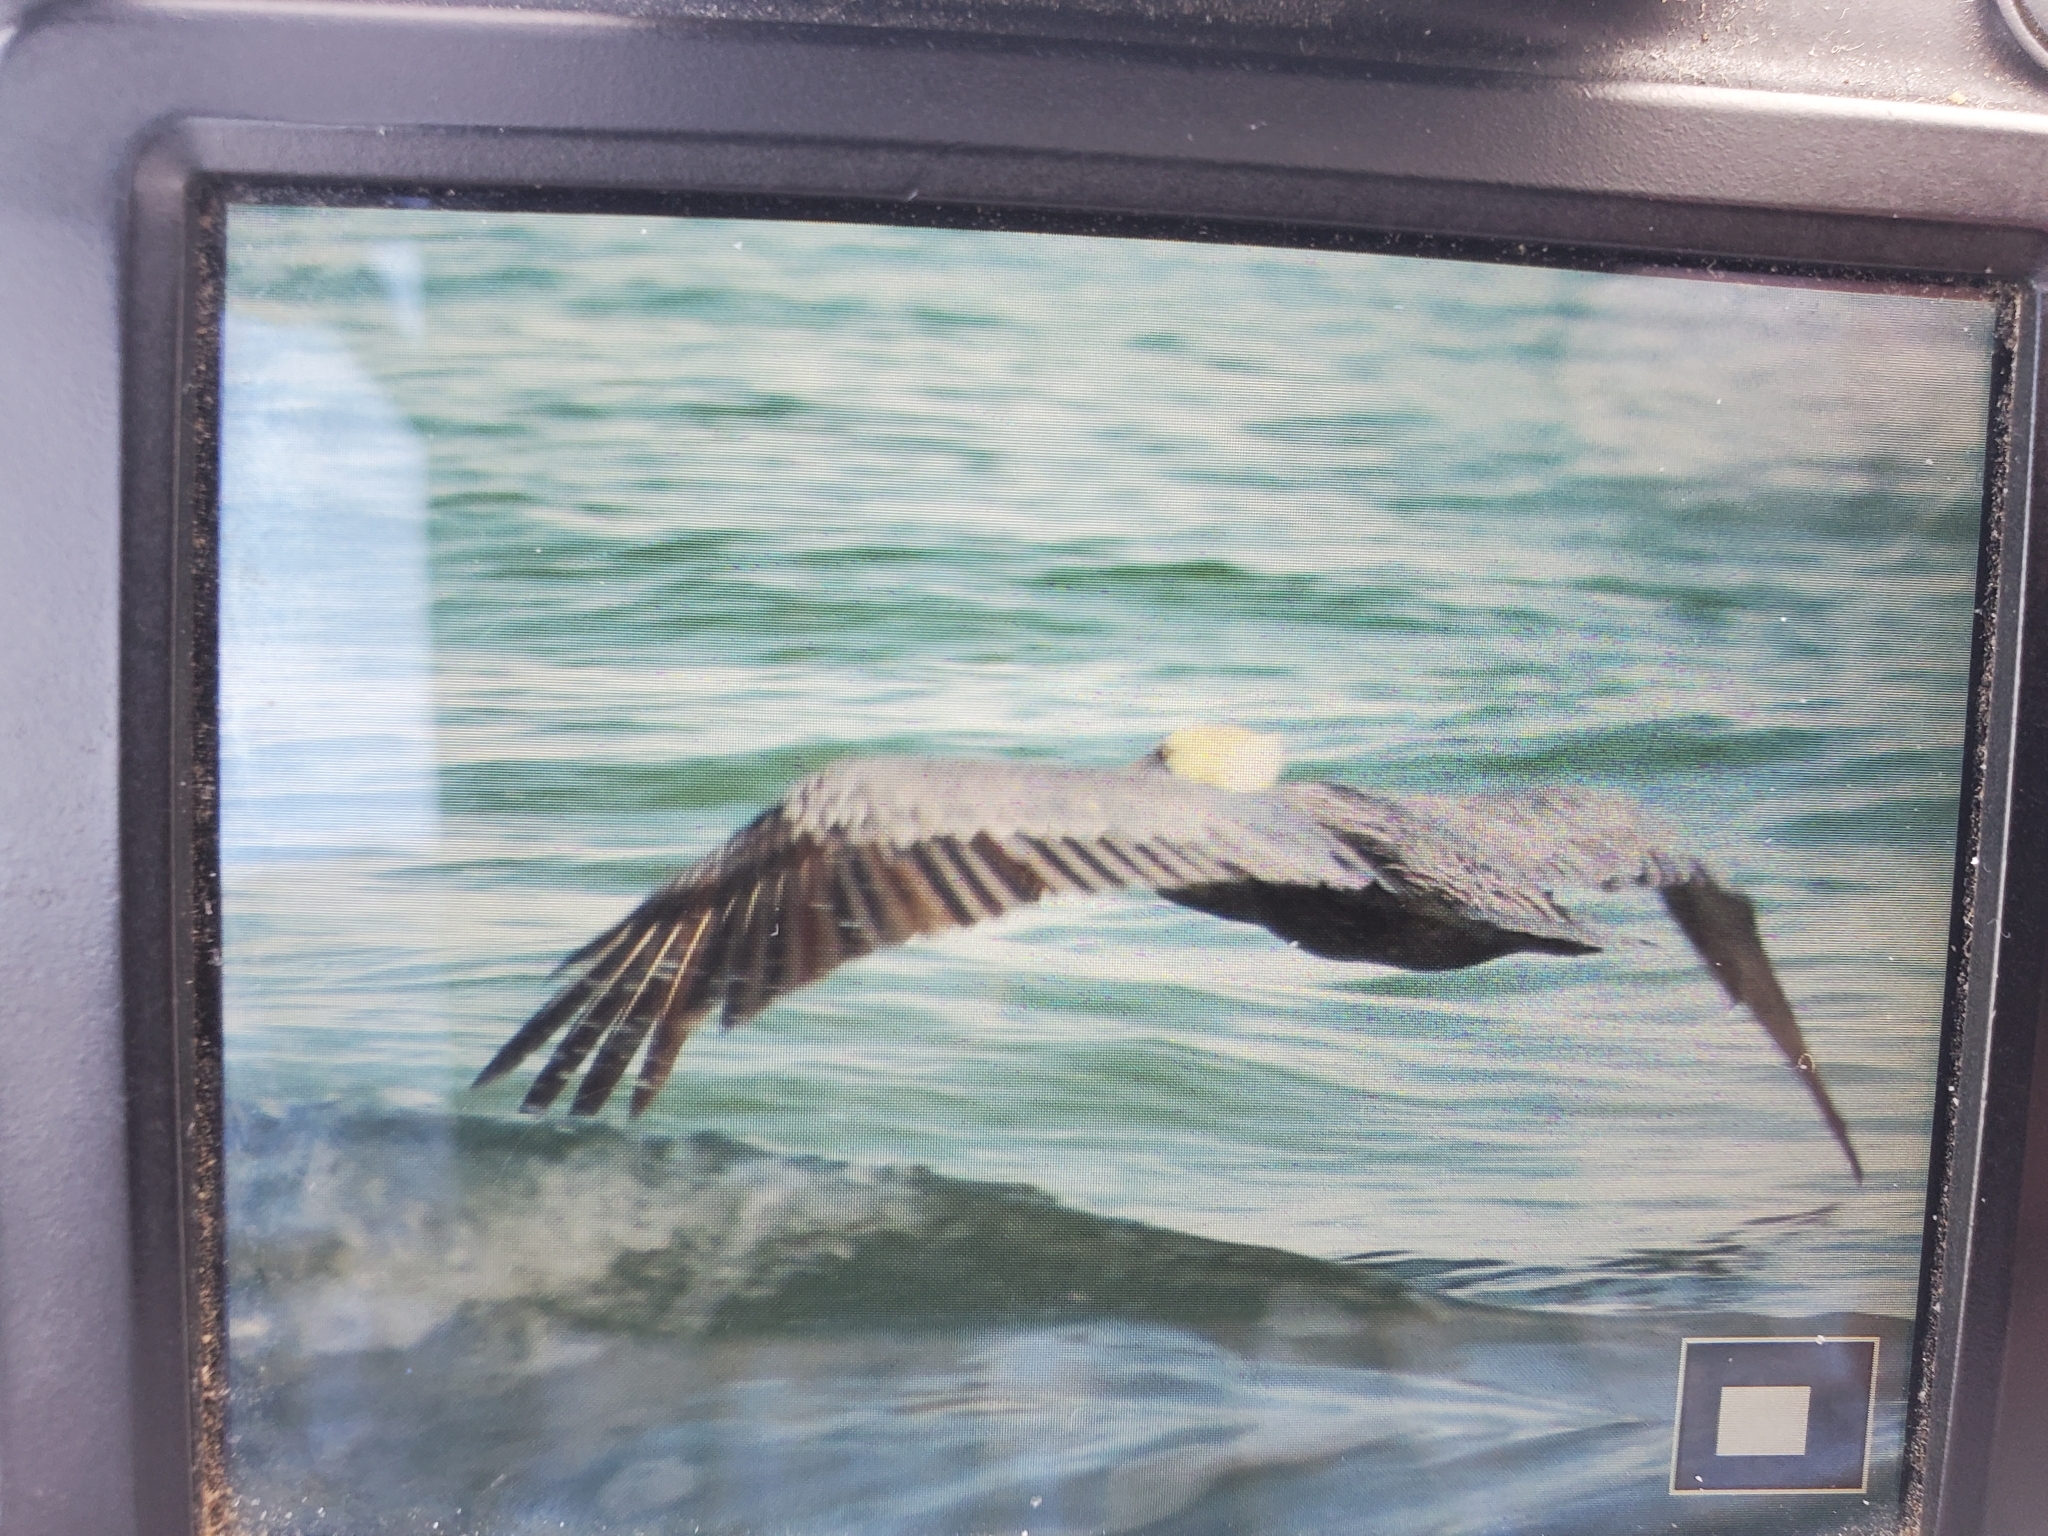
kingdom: Animalia
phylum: Chordata
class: Aves
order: Pelecaniformes
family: Pelecanidae
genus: Pelecanus
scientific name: Pelecanus occidentalis
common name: Brown pelican
